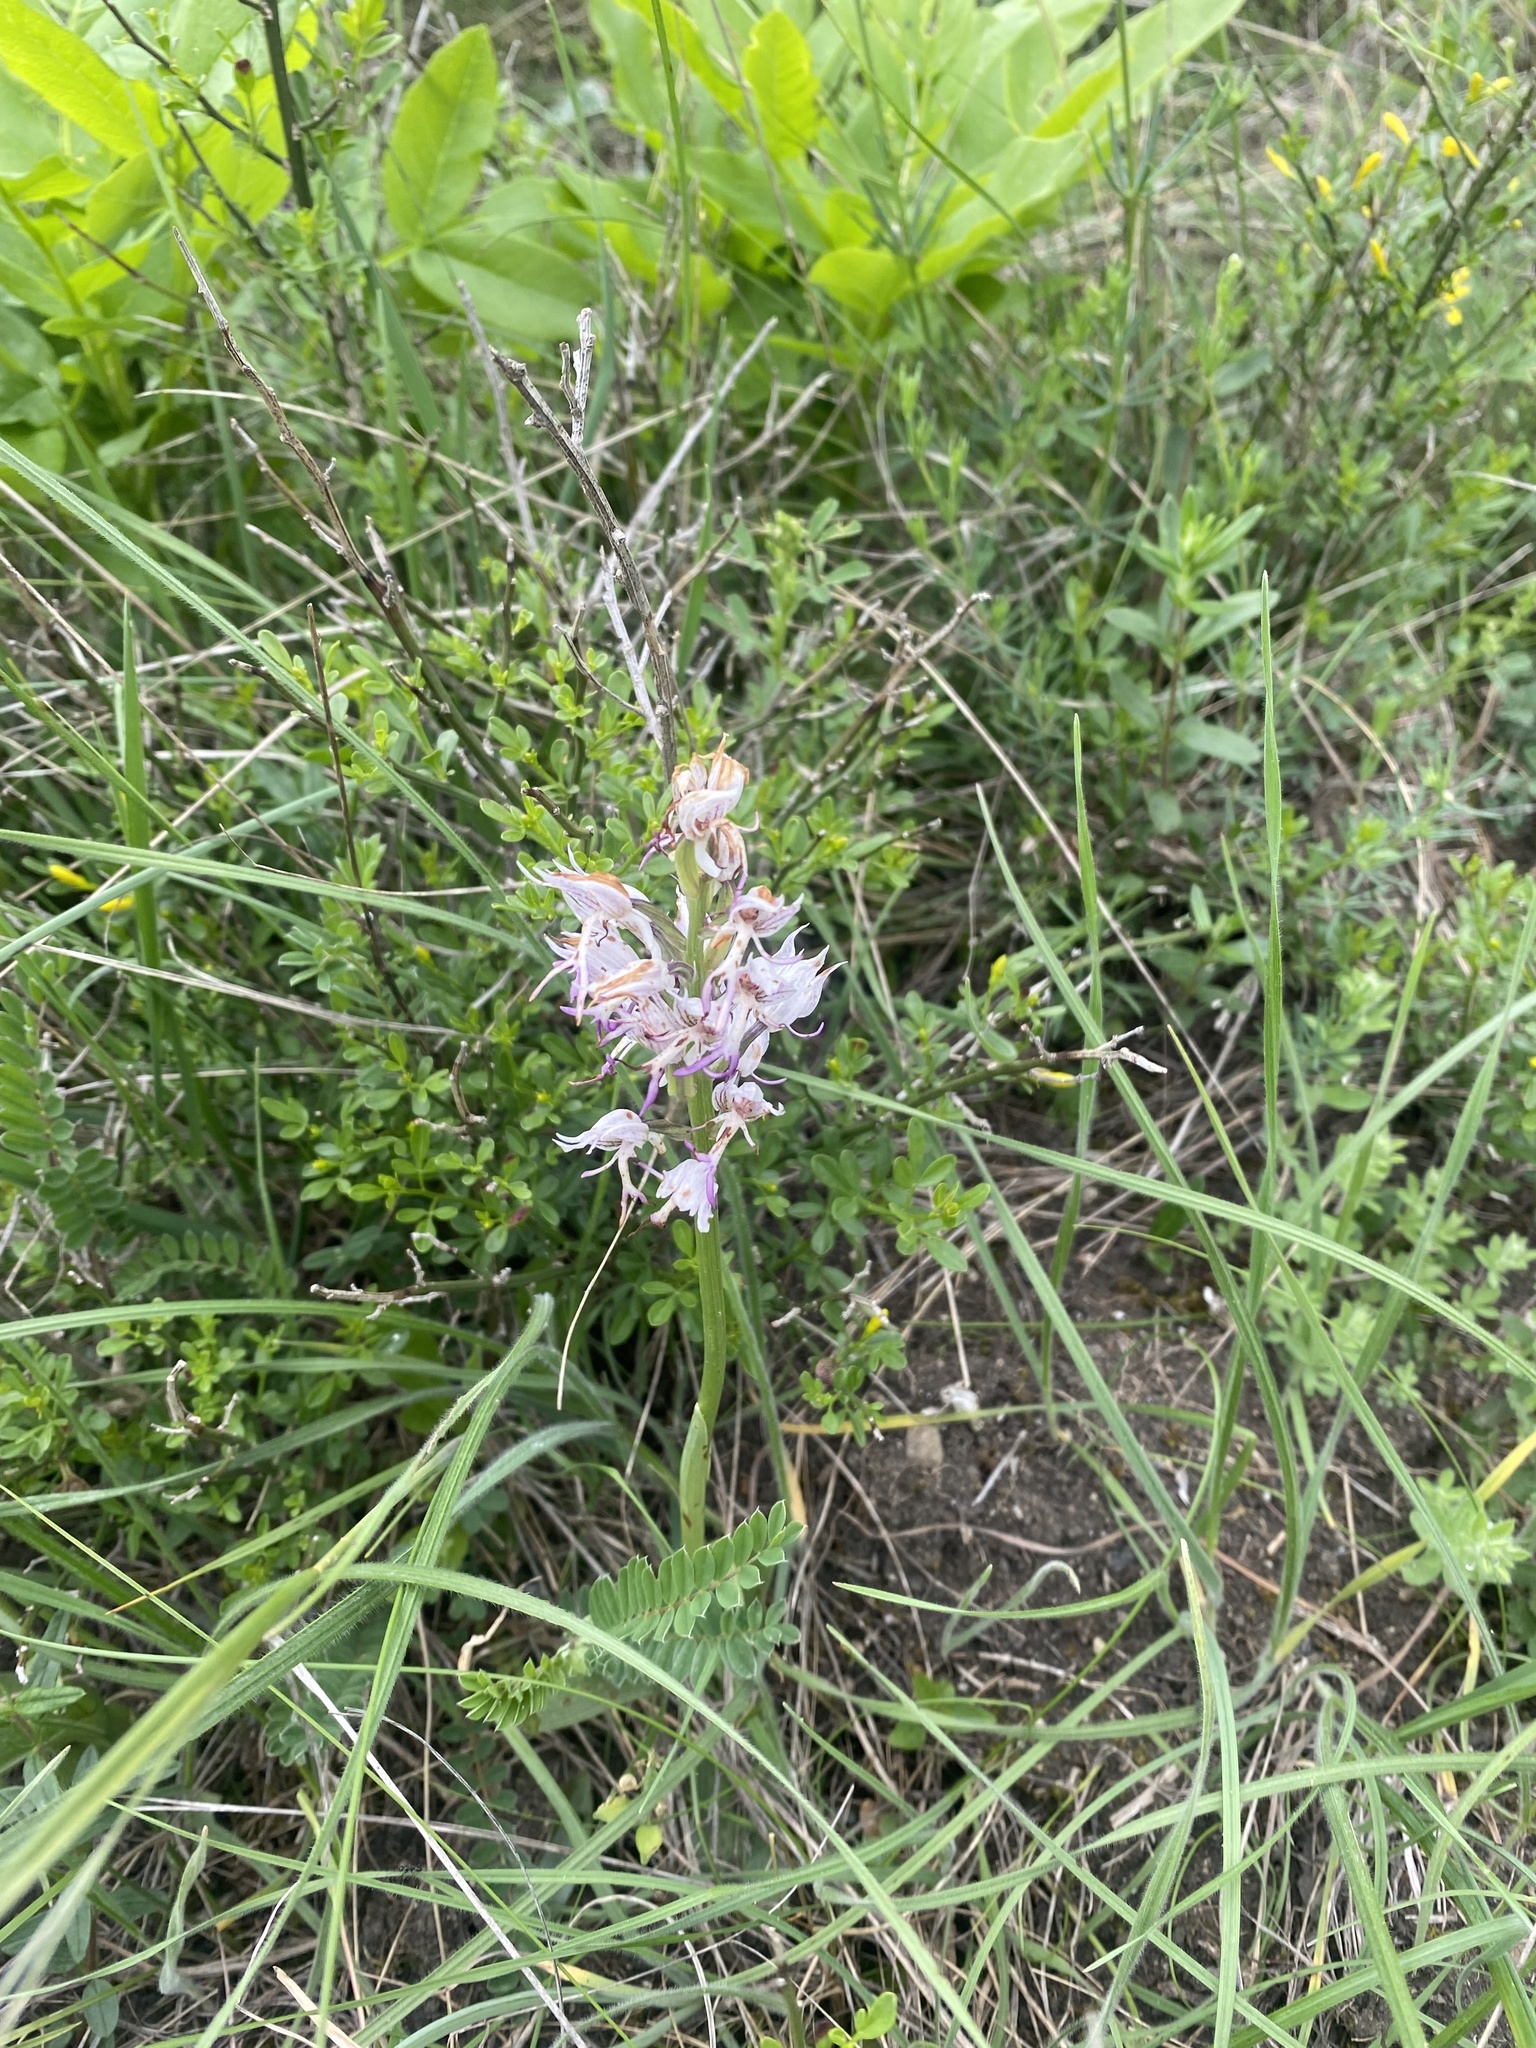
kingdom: Plantae
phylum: Tracheophyta
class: Liliopsida
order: Asparagales
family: Orchidaceae
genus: Orchis
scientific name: Orchis simia
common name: Monkey orchid
